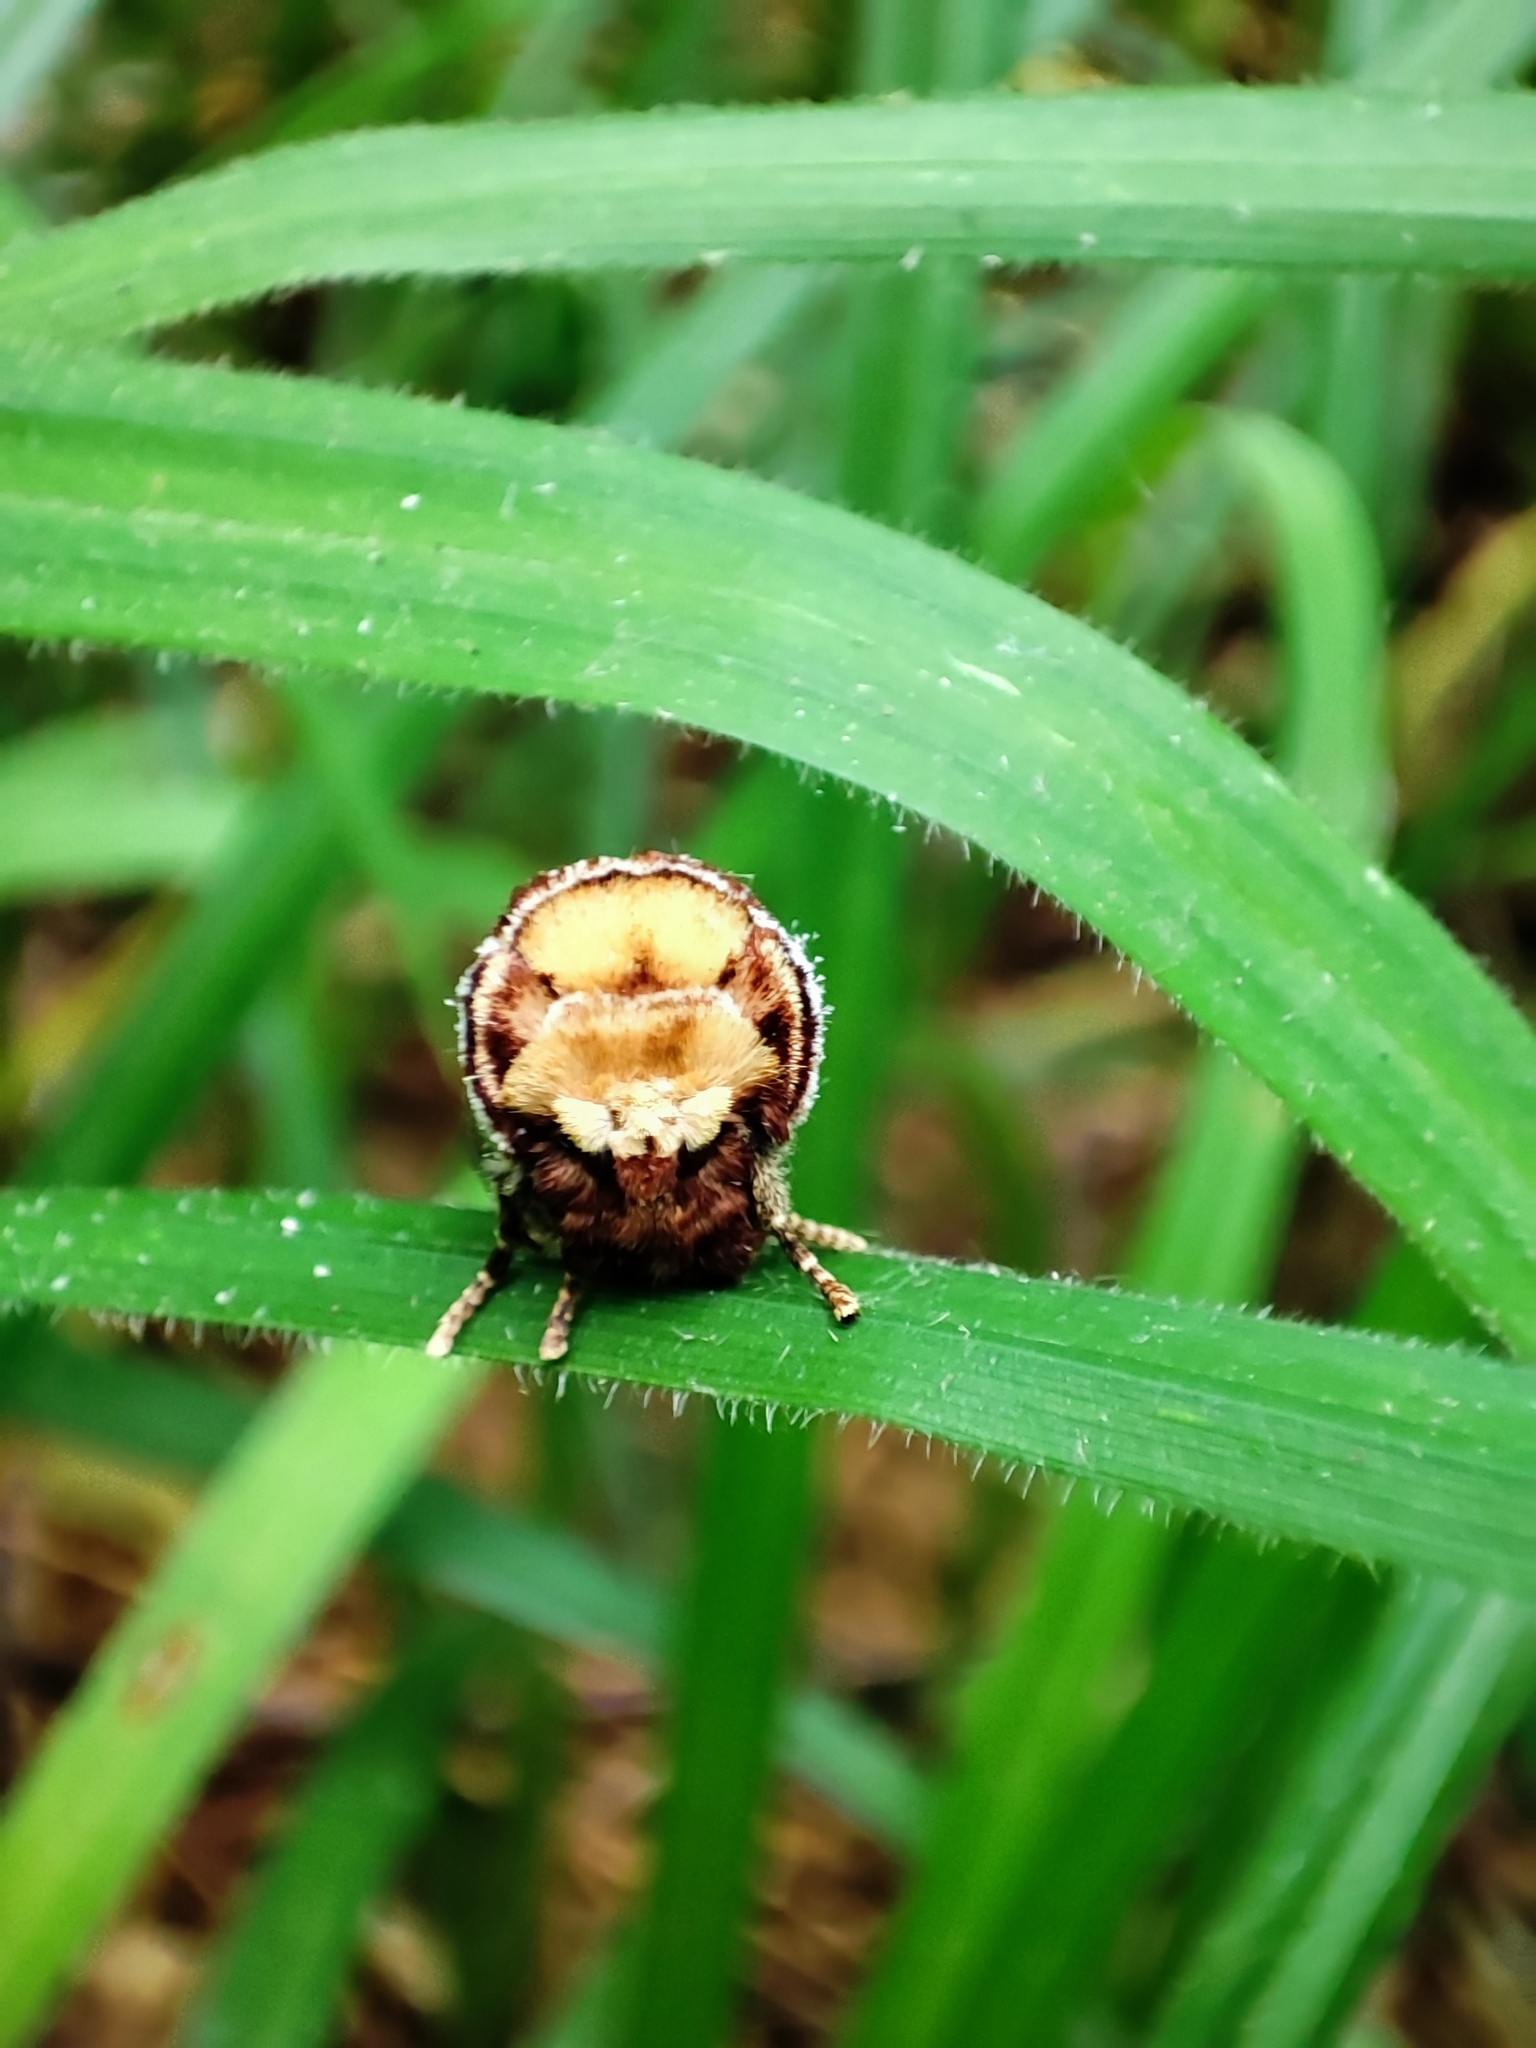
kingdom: Animalia
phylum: Arthropoda
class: Insecta
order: Lepidoptera
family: Notodontidae
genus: Phalera
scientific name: Phalera bucephala
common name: Buff-tip
